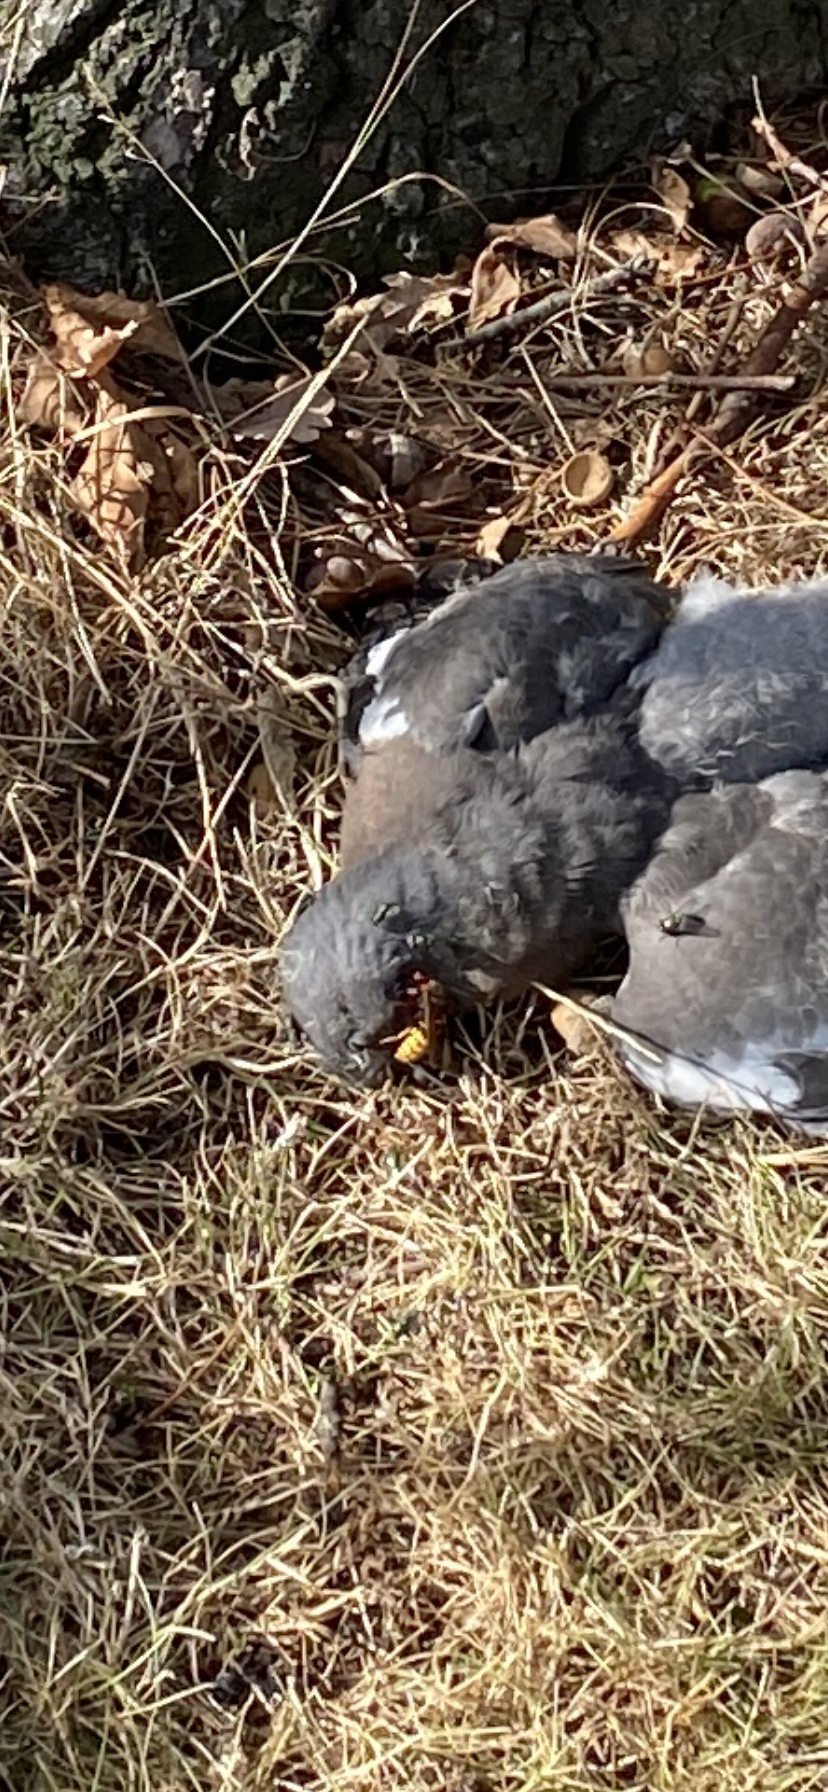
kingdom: Animalia
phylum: Arthropoda
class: Insecta
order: Hymenoptera
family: Vespidae
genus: Vespa
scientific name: Vespa crabro
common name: Hornet
